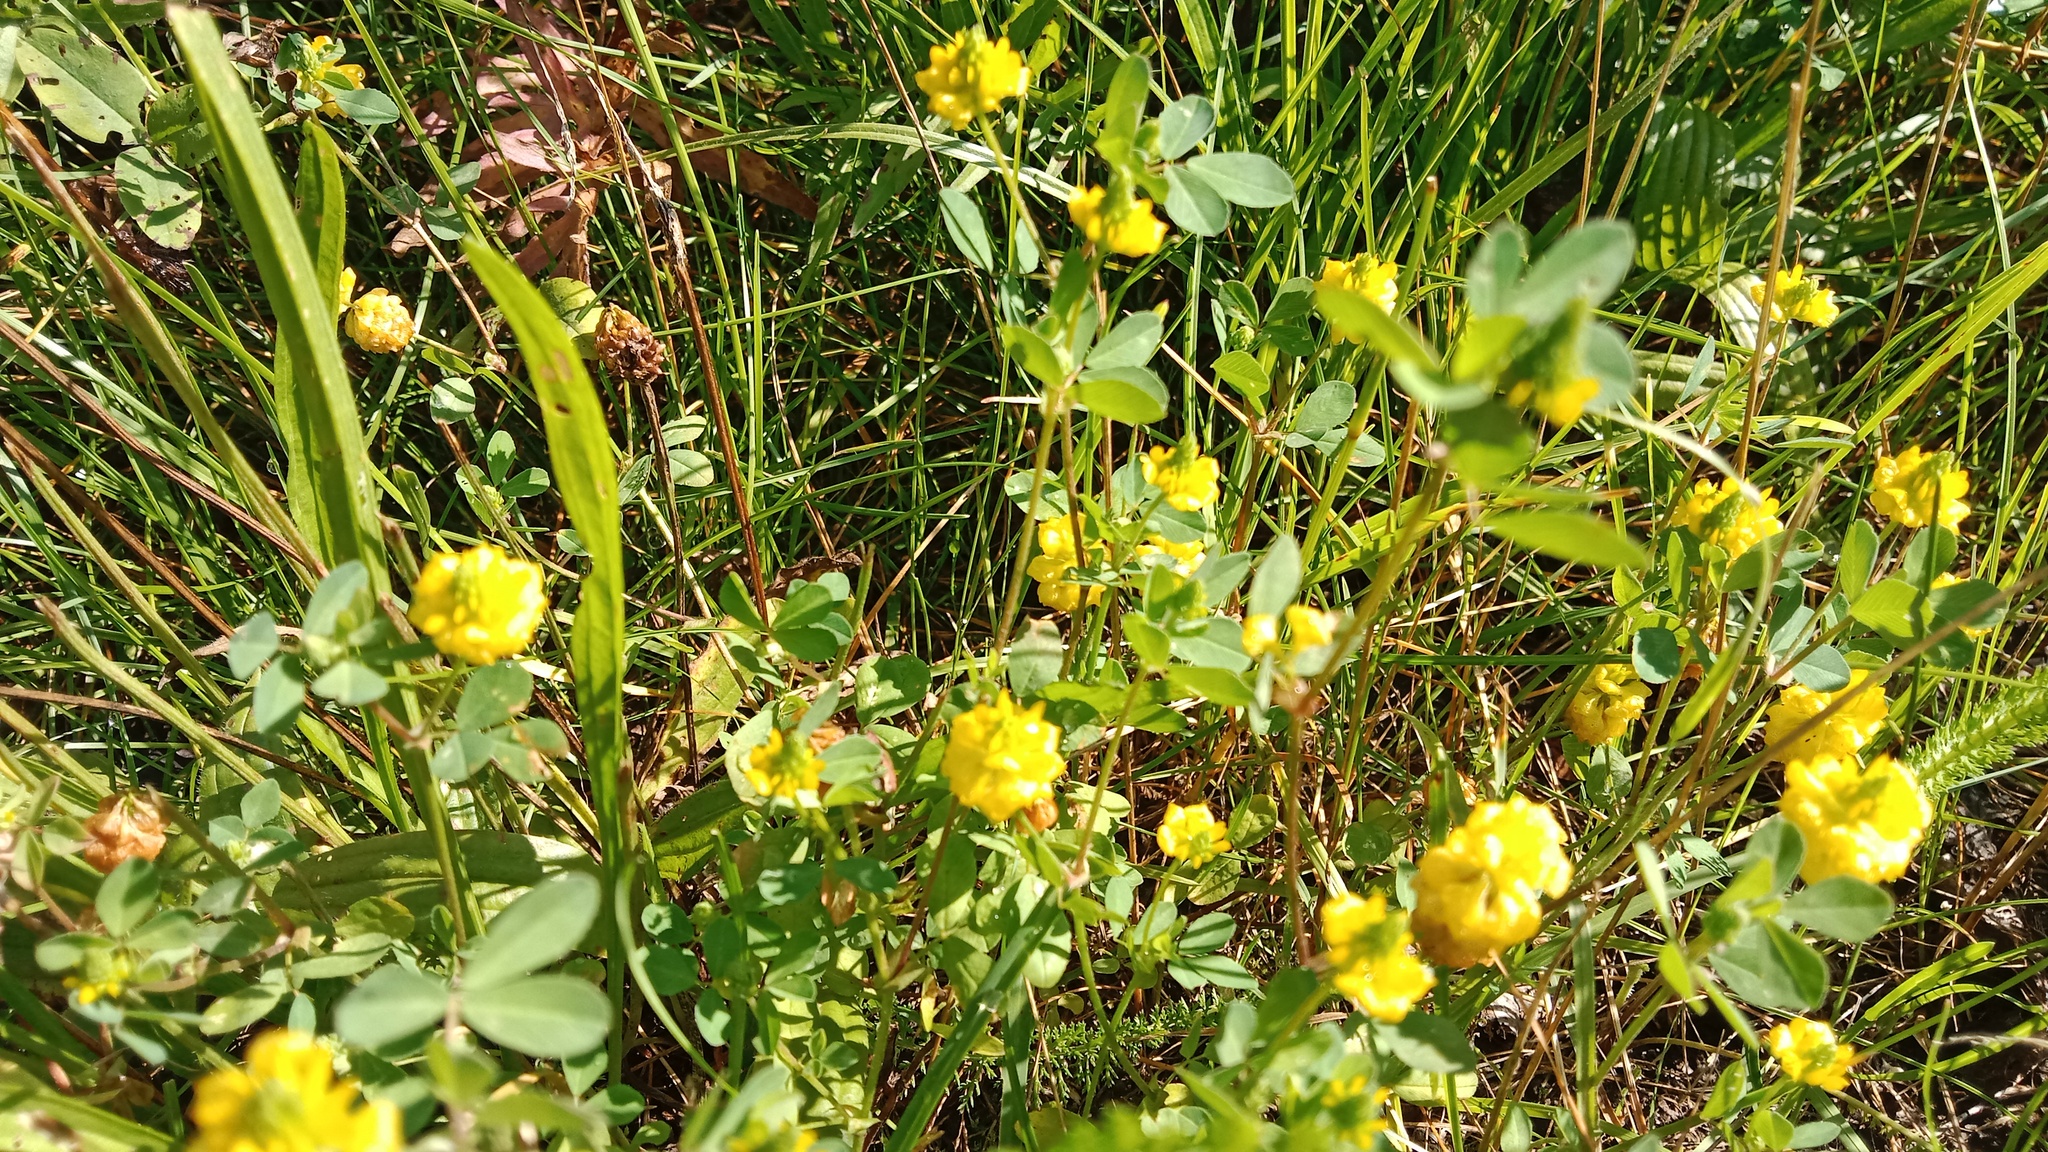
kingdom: Plantae
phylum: Tracheophyta
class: Magnoliopsida
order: Fabales
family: Fabaceae
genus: Trifolium
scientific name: Trifolium campestre
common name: Field clover
